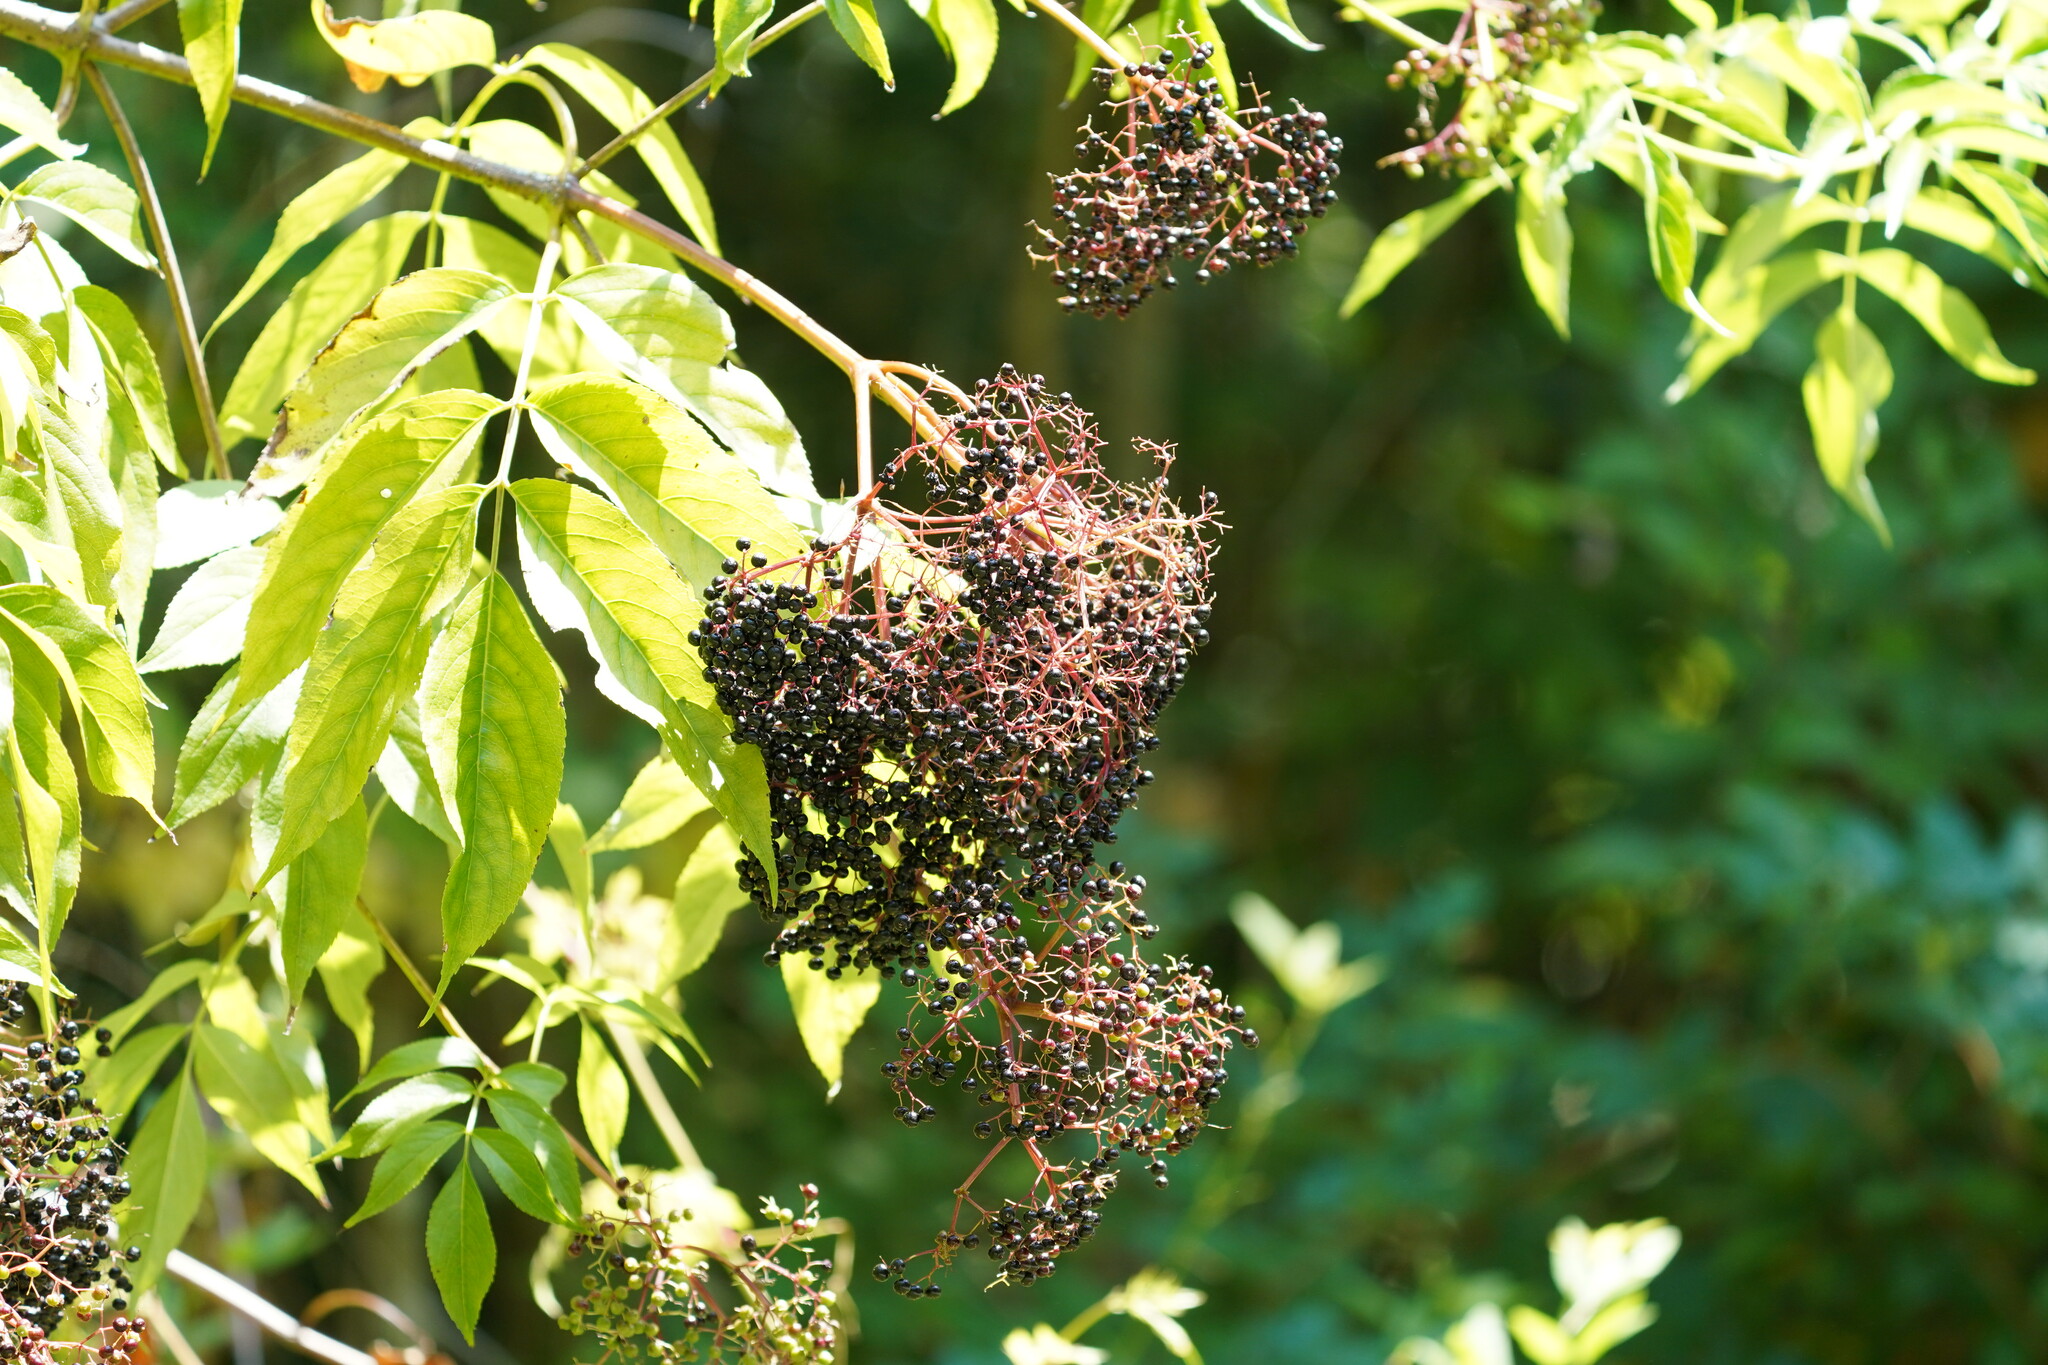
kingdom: Plantae
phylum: Tracheophyta
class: Magnoliopsida
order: Dipsacales
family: Viburnaceae
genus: Sambucus
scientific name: Sambucus canadensis
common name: American elder
